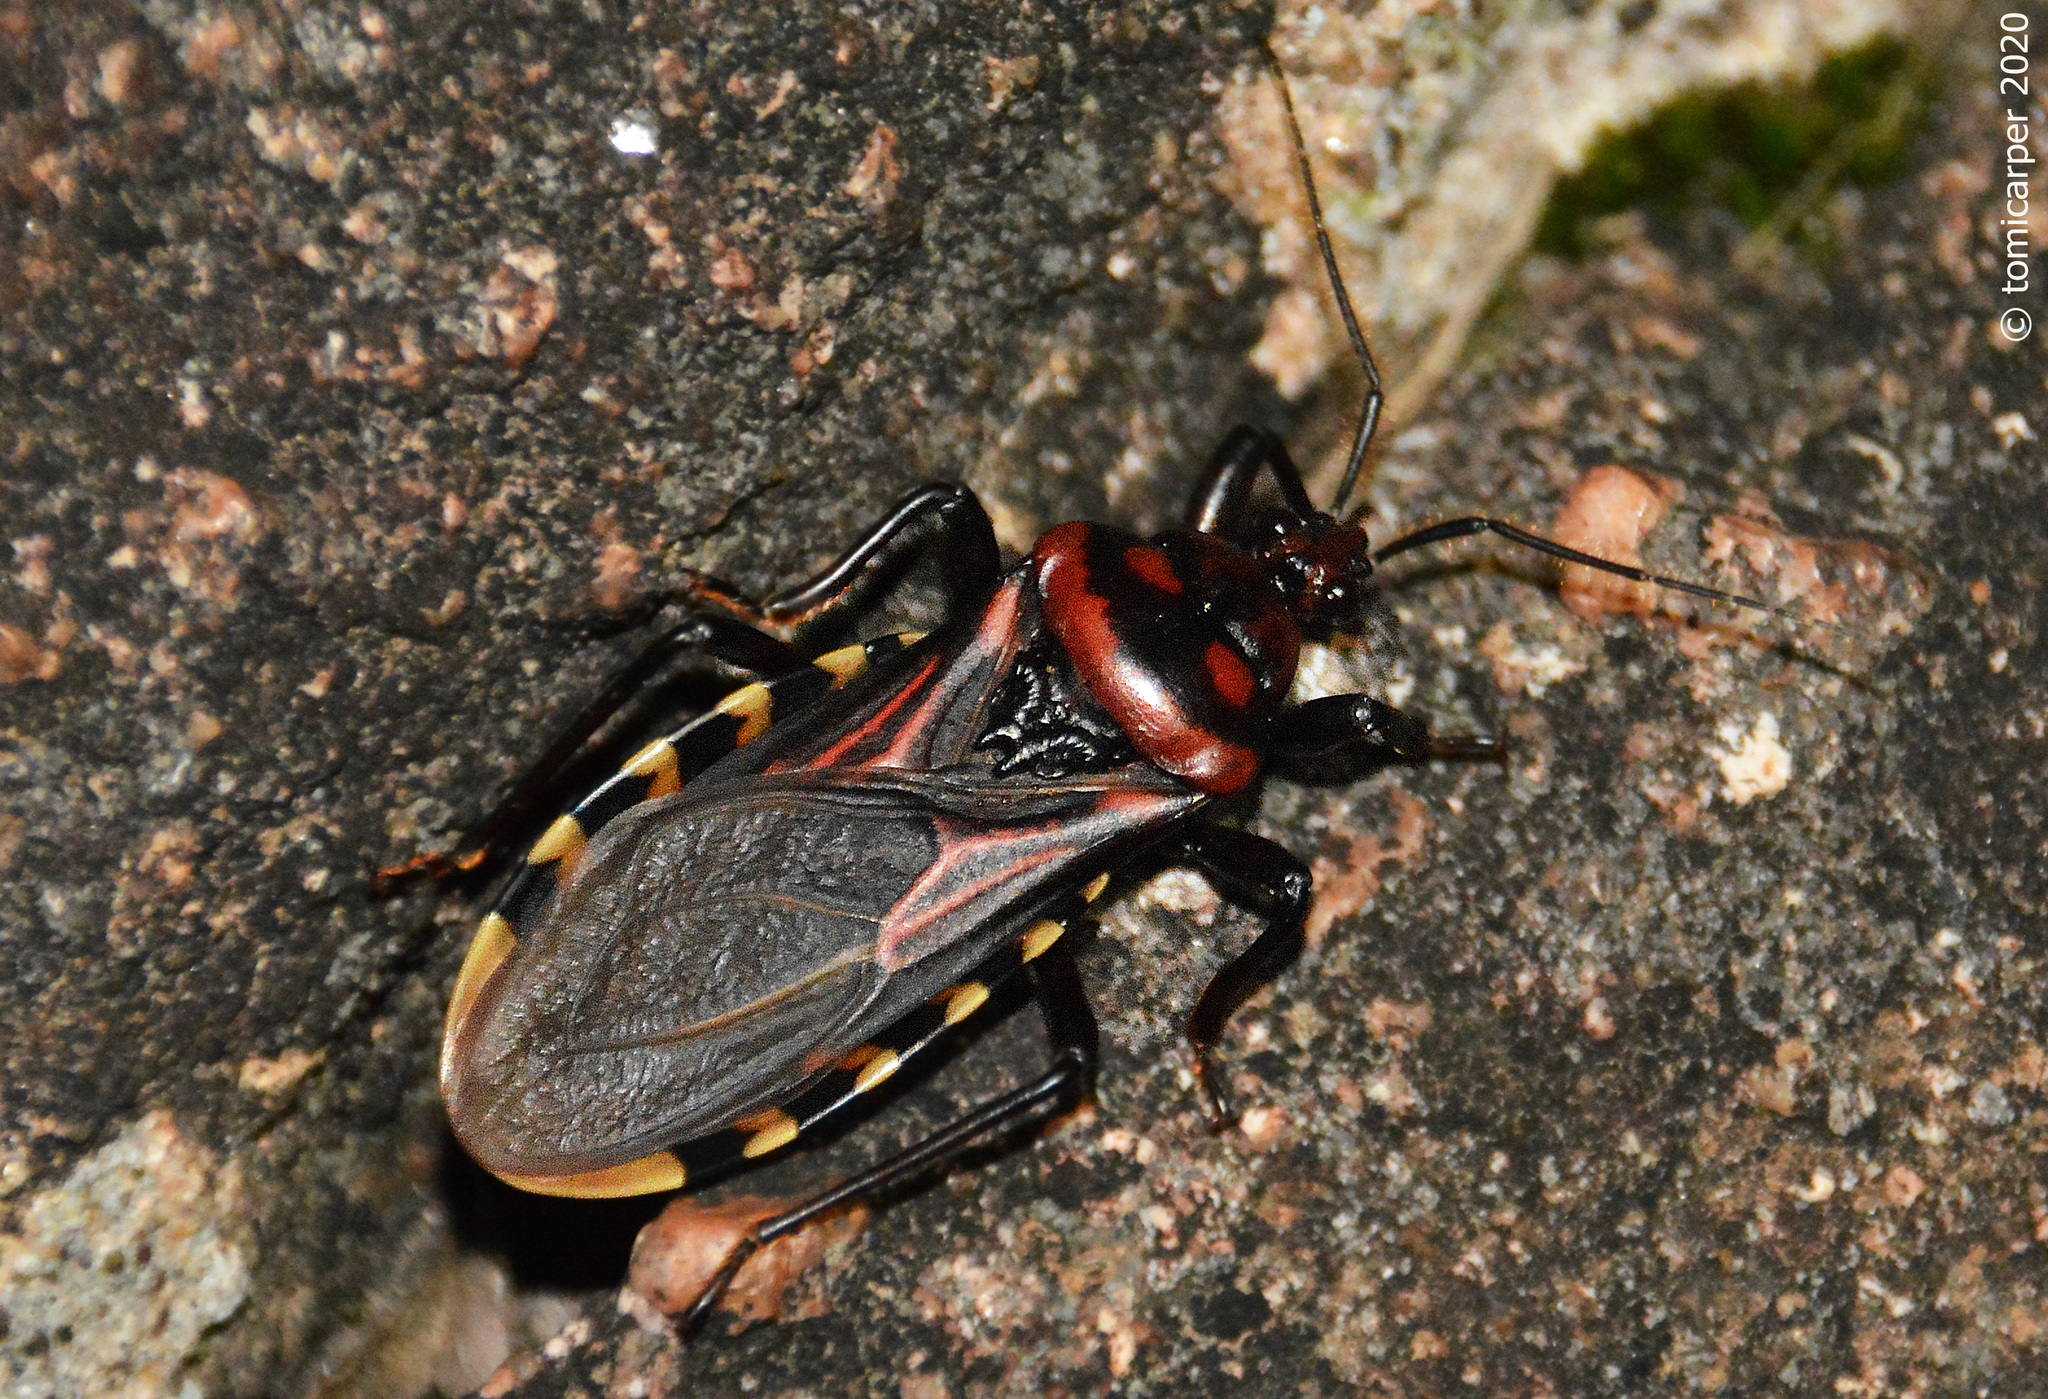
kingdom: Animalia
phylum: Arthropoda
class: Insecta
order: Hemiptera
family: Reduviidae
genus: Brontostoma
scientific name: Brontostoma colossus
